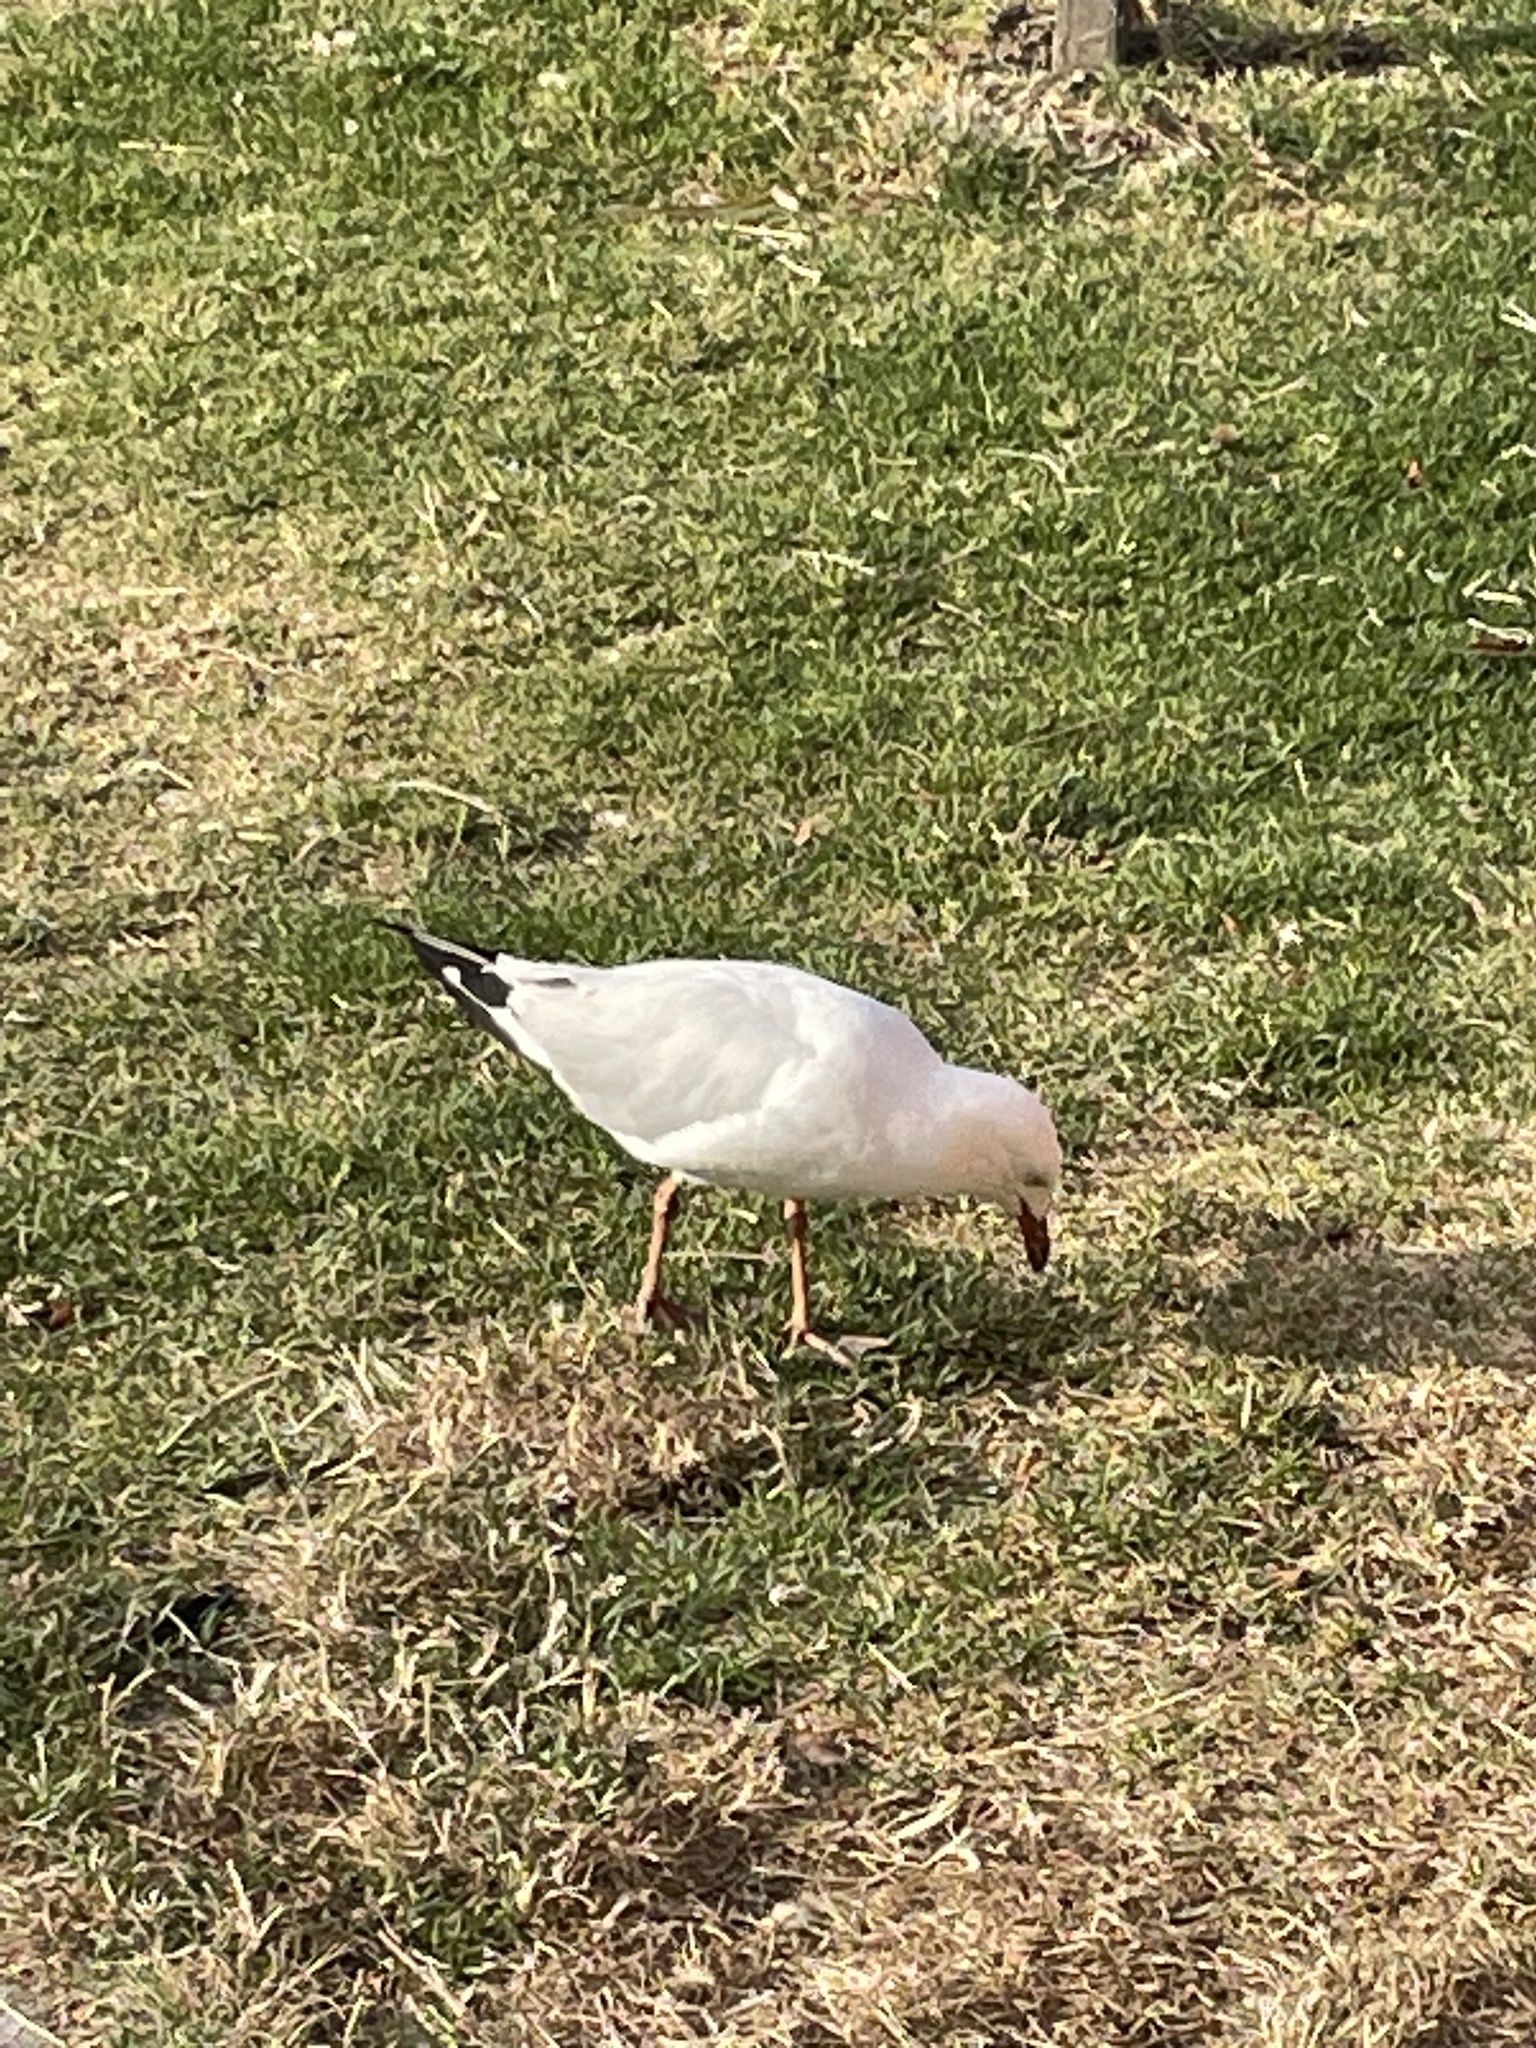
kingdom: Animalia
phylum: Chordata
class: Aves
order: Charadriiformes
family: Laridae
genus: Chroicocephalus
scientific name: Chroicocephalus novaehollandiae
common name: Silver gull
